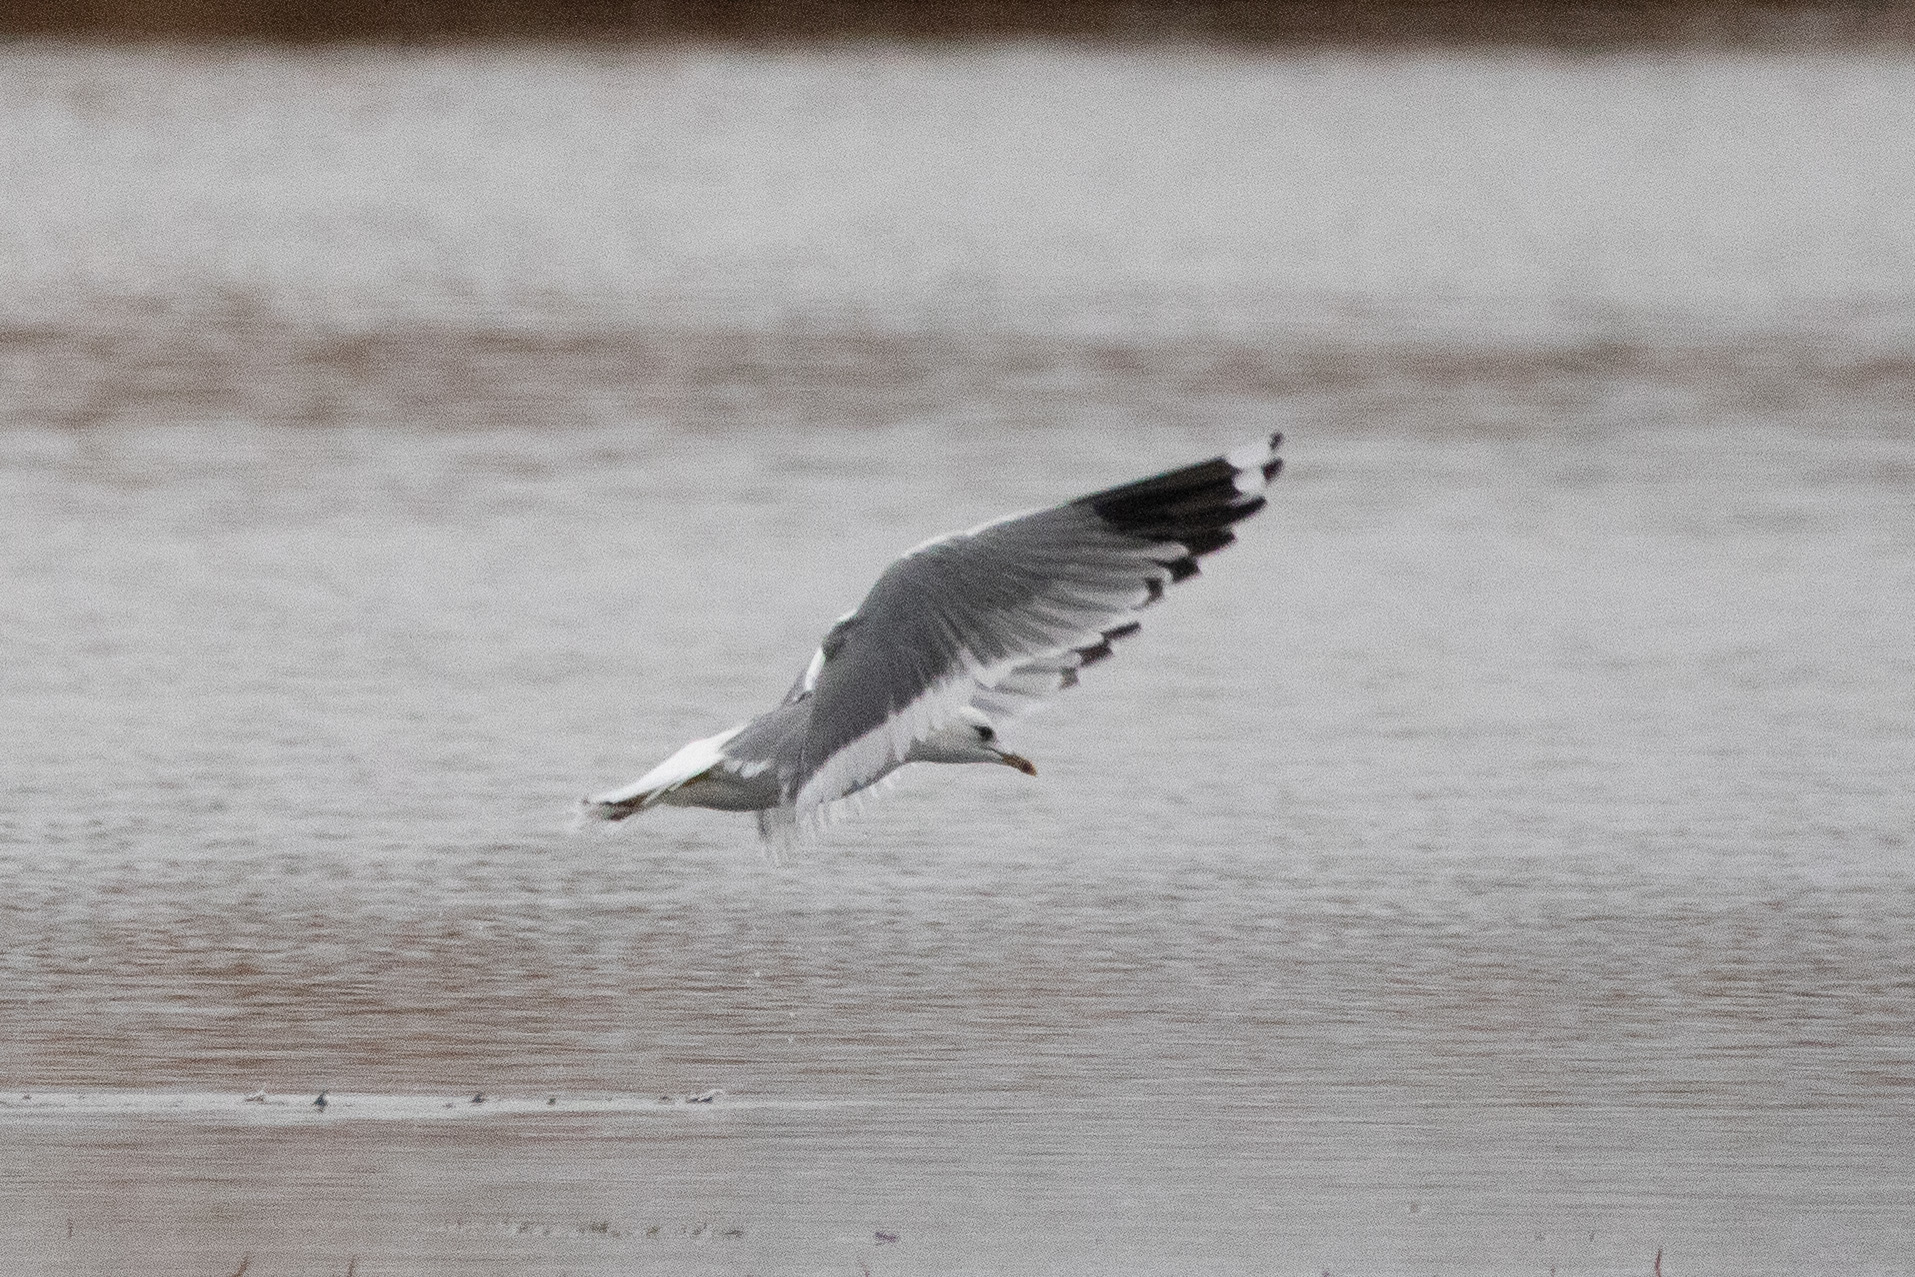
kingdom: Animalia
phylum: Chordata
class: Aves
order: Charadriiformes
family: Laridae
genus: Larus
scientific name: Larus canus
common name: Mew gull
